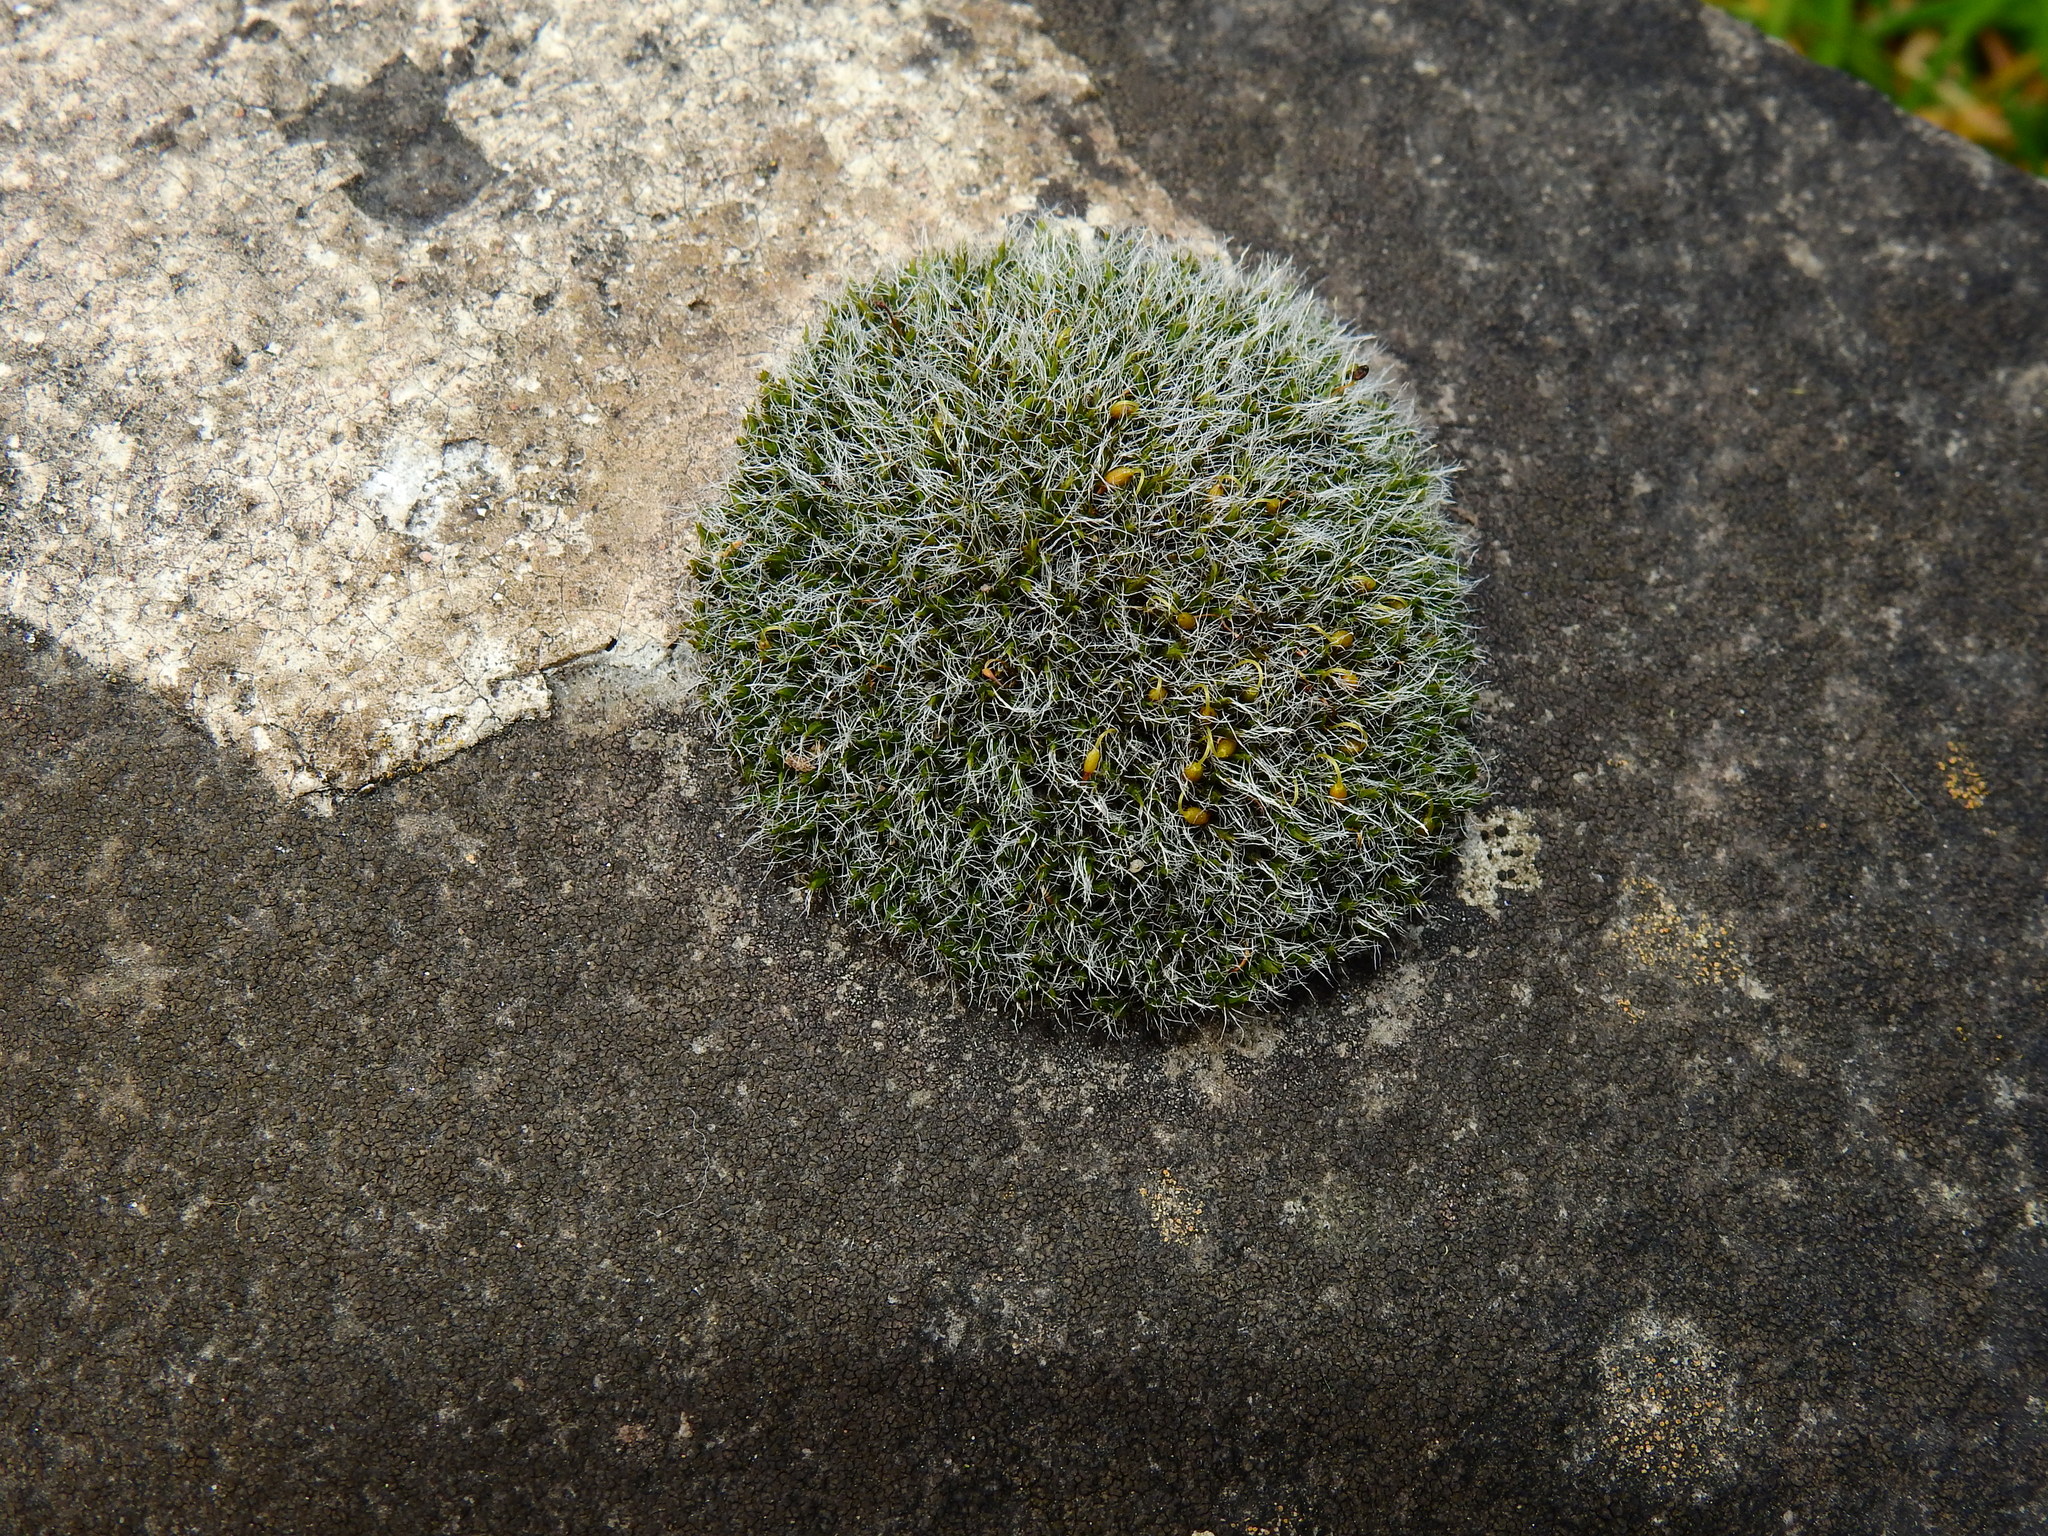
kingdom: Plantae
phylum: Bryophyta
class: Bryopsida
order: Grimmiales
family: Grimmiaceae
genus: Grimmia
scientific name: Grimmia pulvinata
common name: Grey-cushioned grimmia
